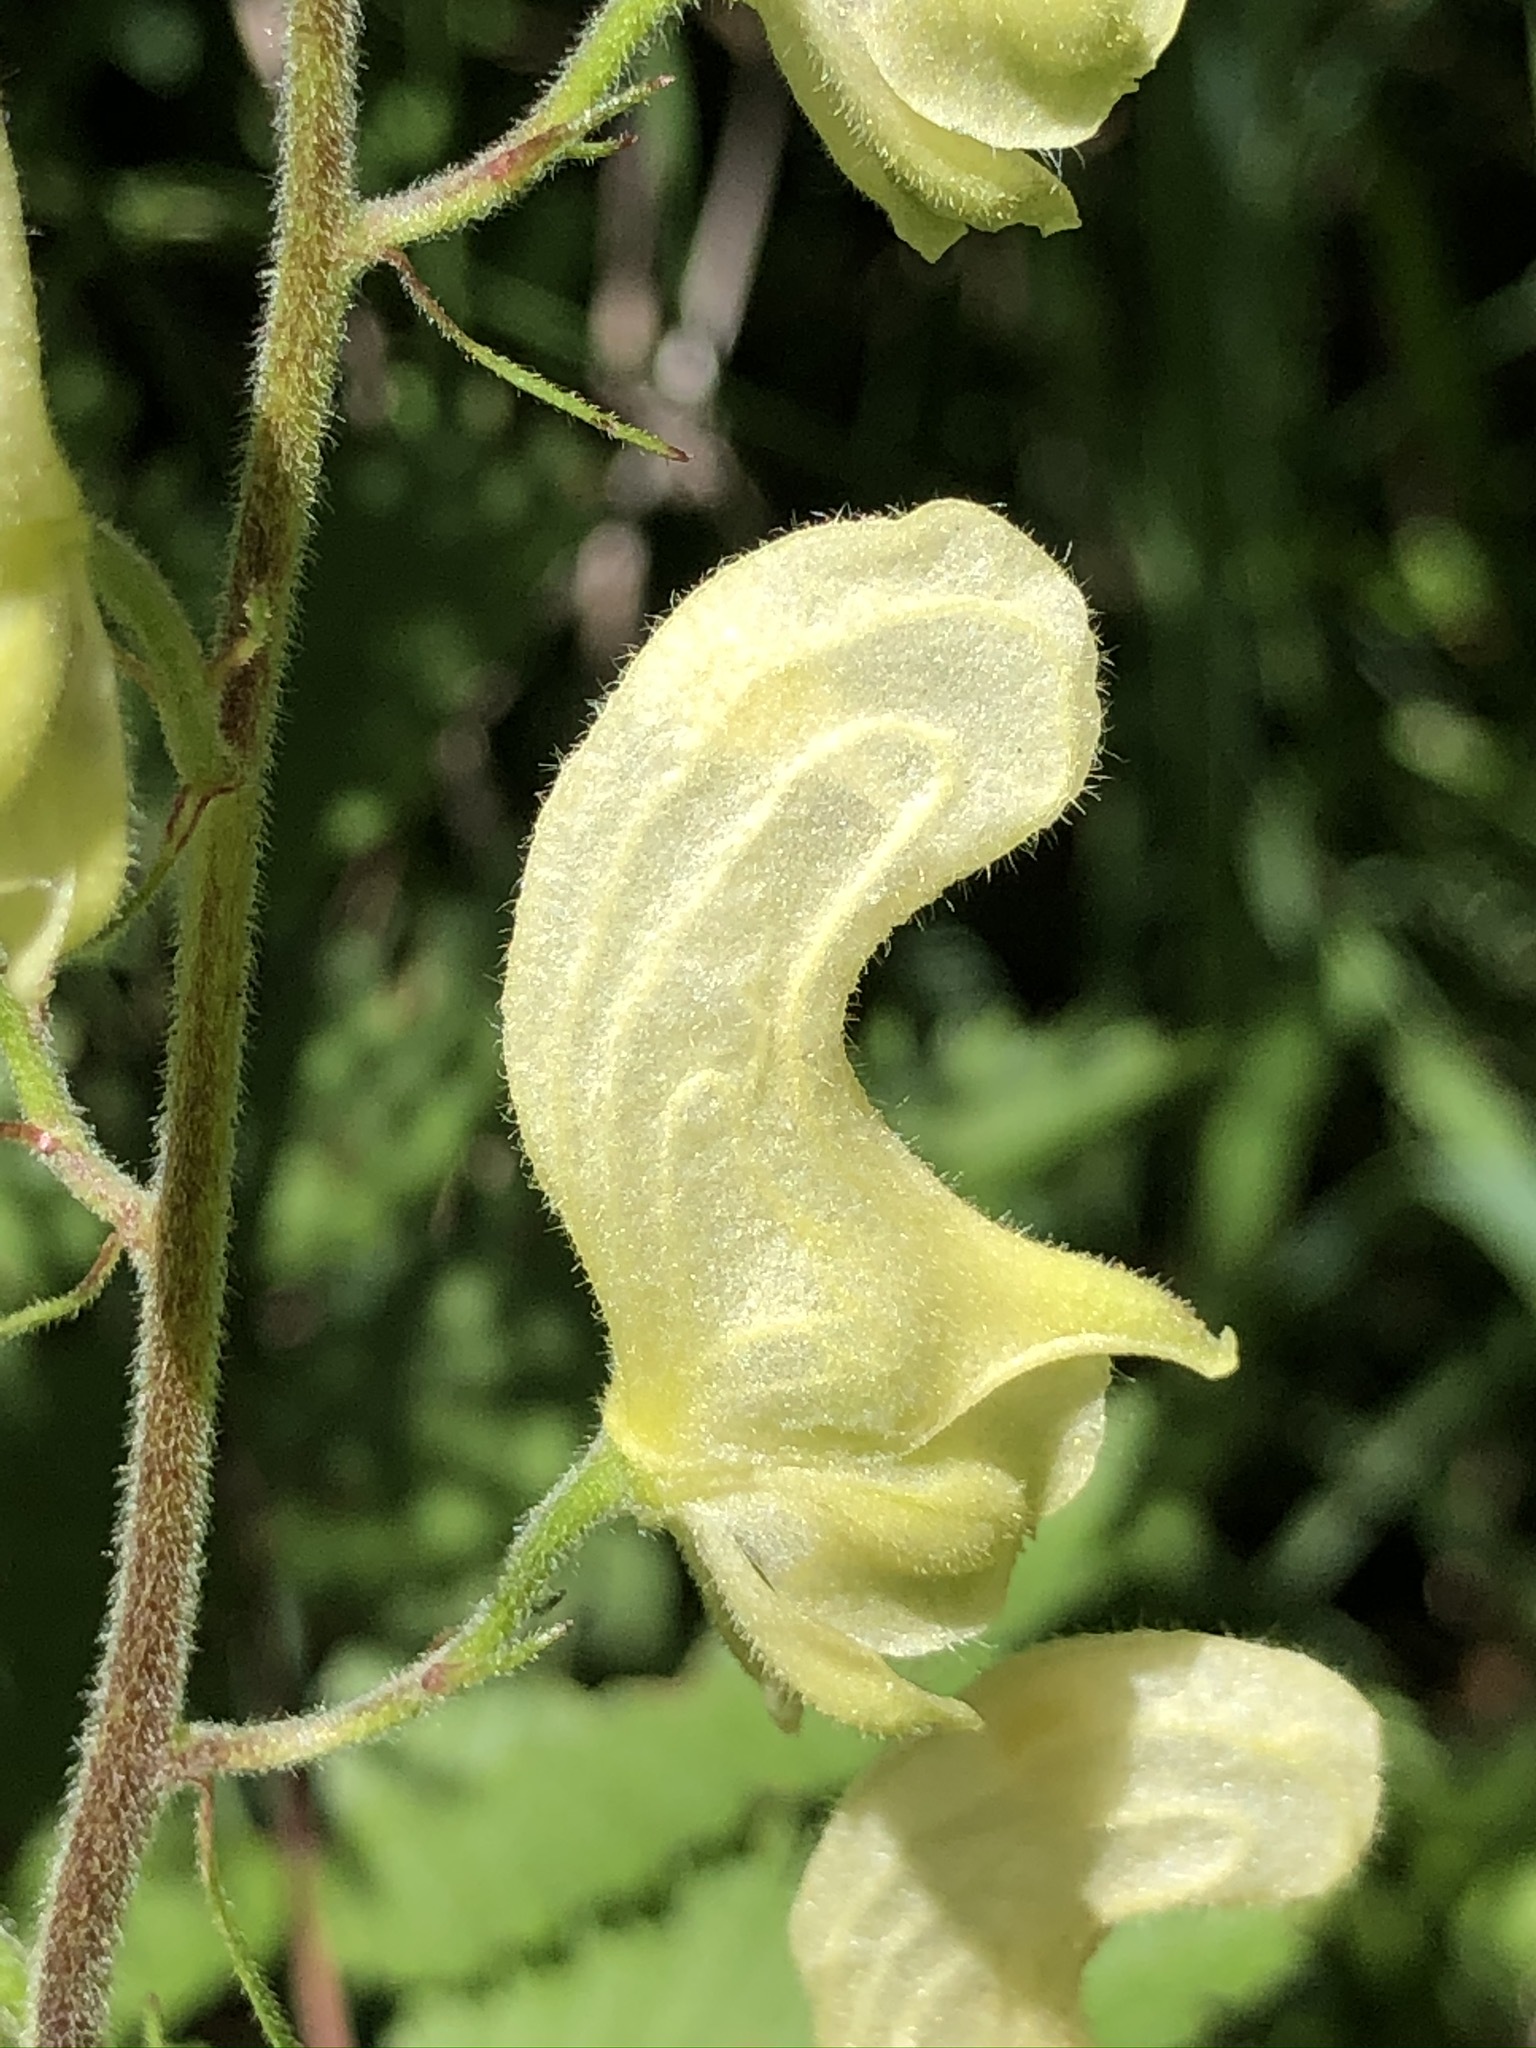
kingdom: Plantae
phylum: Tracheophyta
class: Magnoliopsida
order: Ranunculales
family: Ranunculaceae
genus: Aconitum
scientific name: Aconitum lycoctonum
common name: Wolf's-bane
